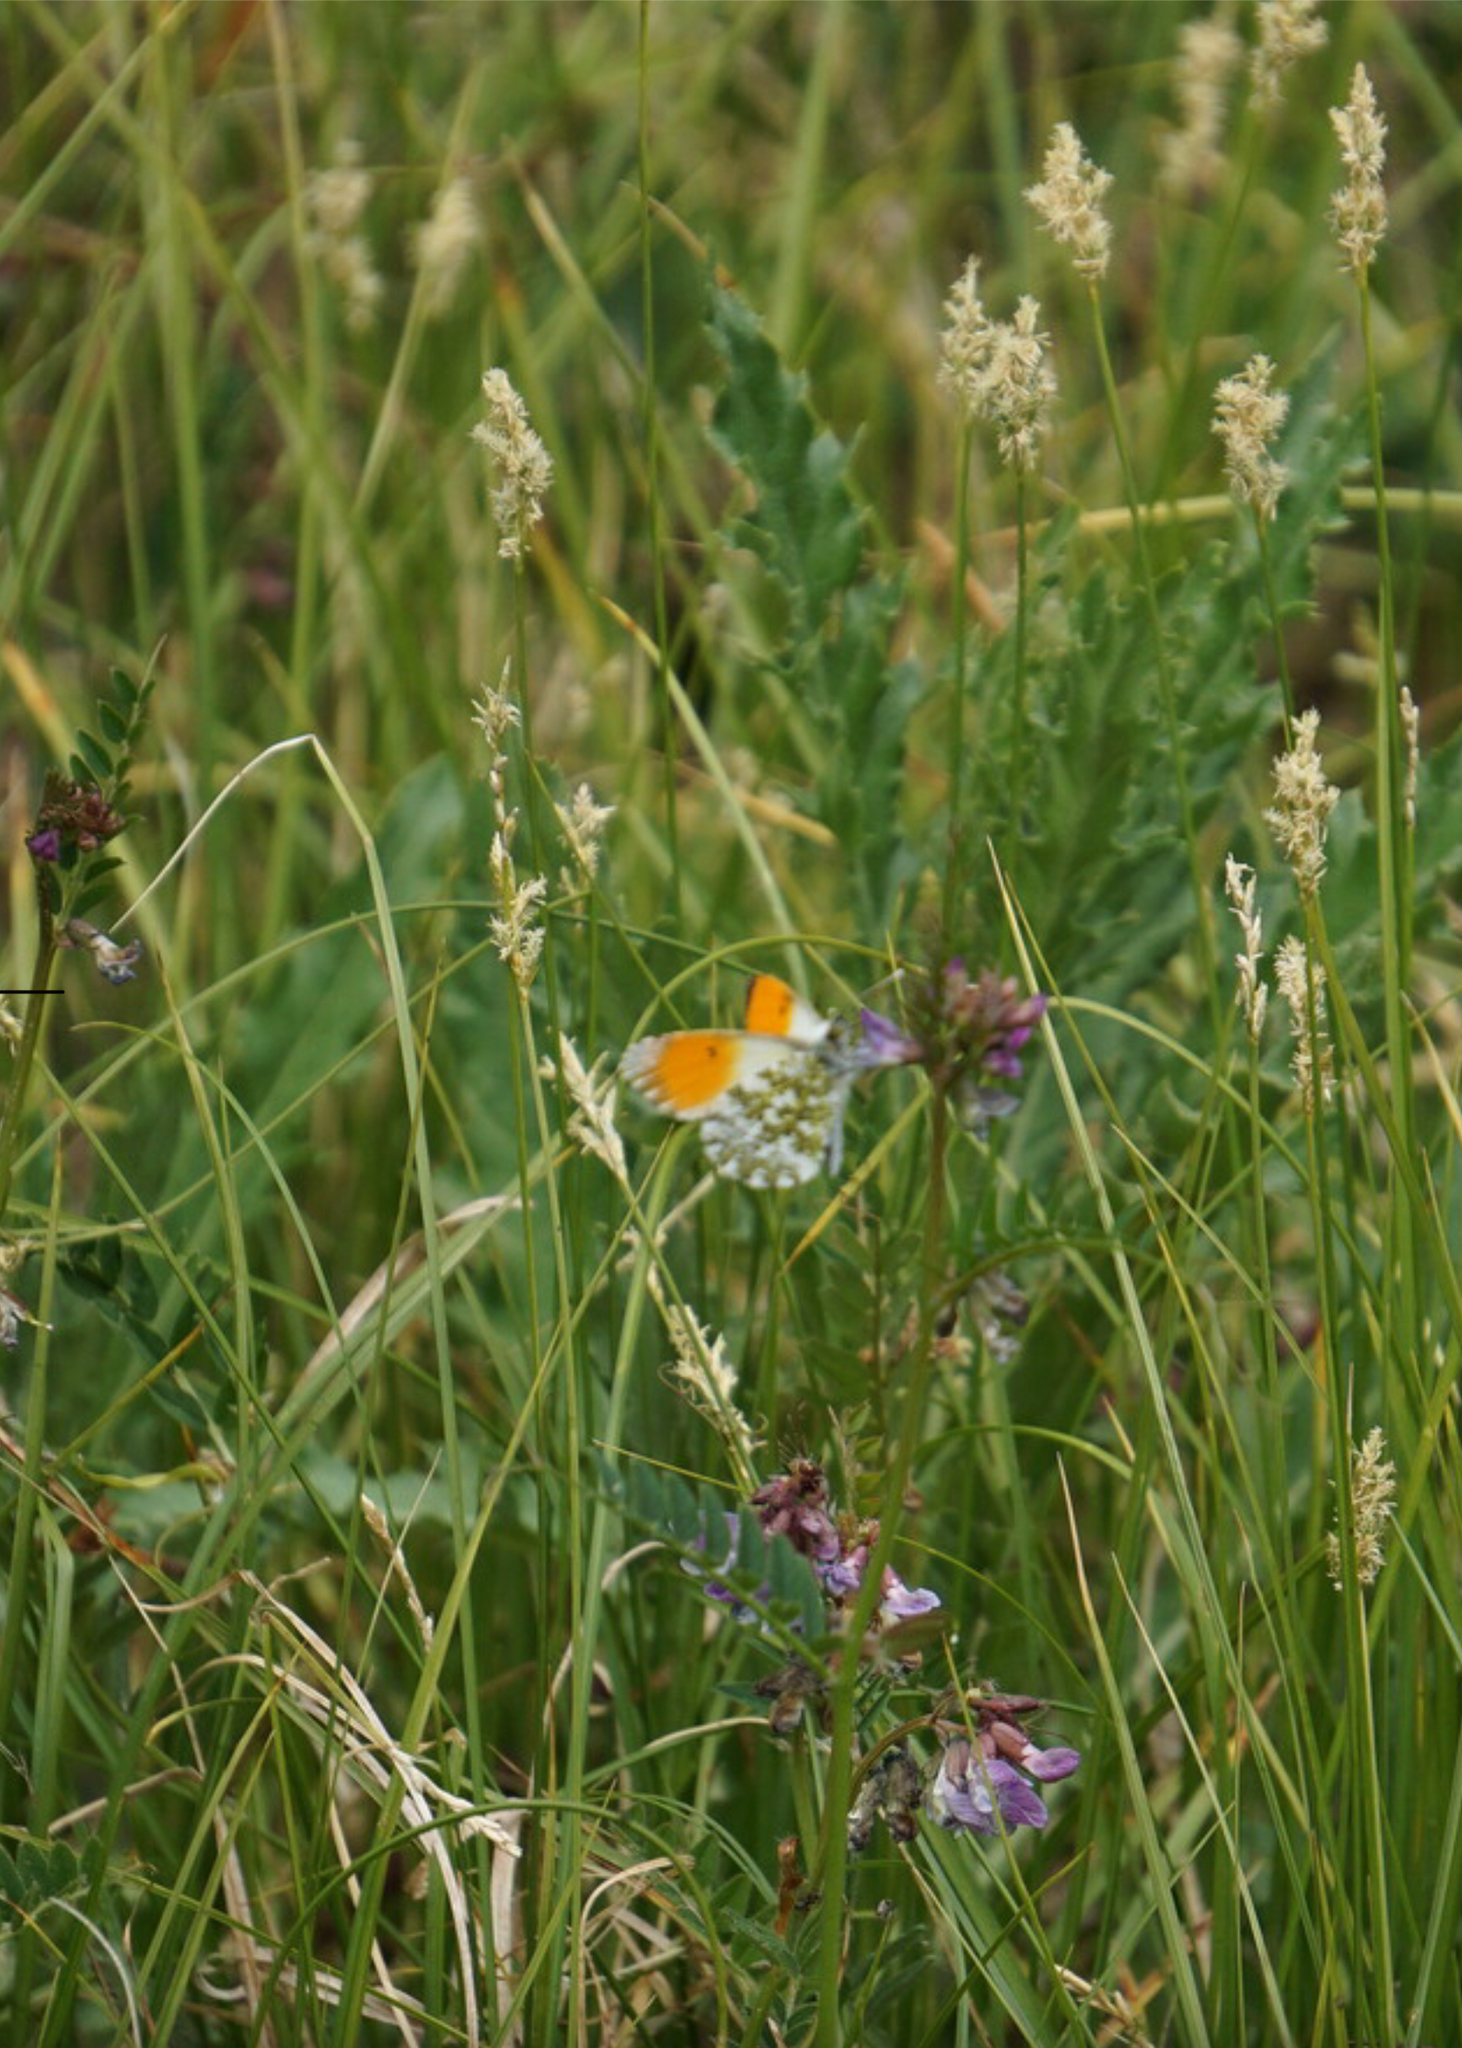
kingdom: Animalia
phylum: Arthropoda
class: Insecta
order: Lepidoptera
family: Pieridae
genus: Anthocharis
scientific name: Anthocharis cardamines
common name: Orange-tip
